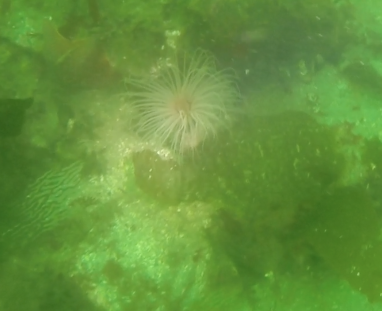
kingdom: Animalia
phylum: Echinodermata
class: Asteroidea
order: Valvatida
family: Asterinidae
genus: Patiria
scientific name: Patiria miniata
